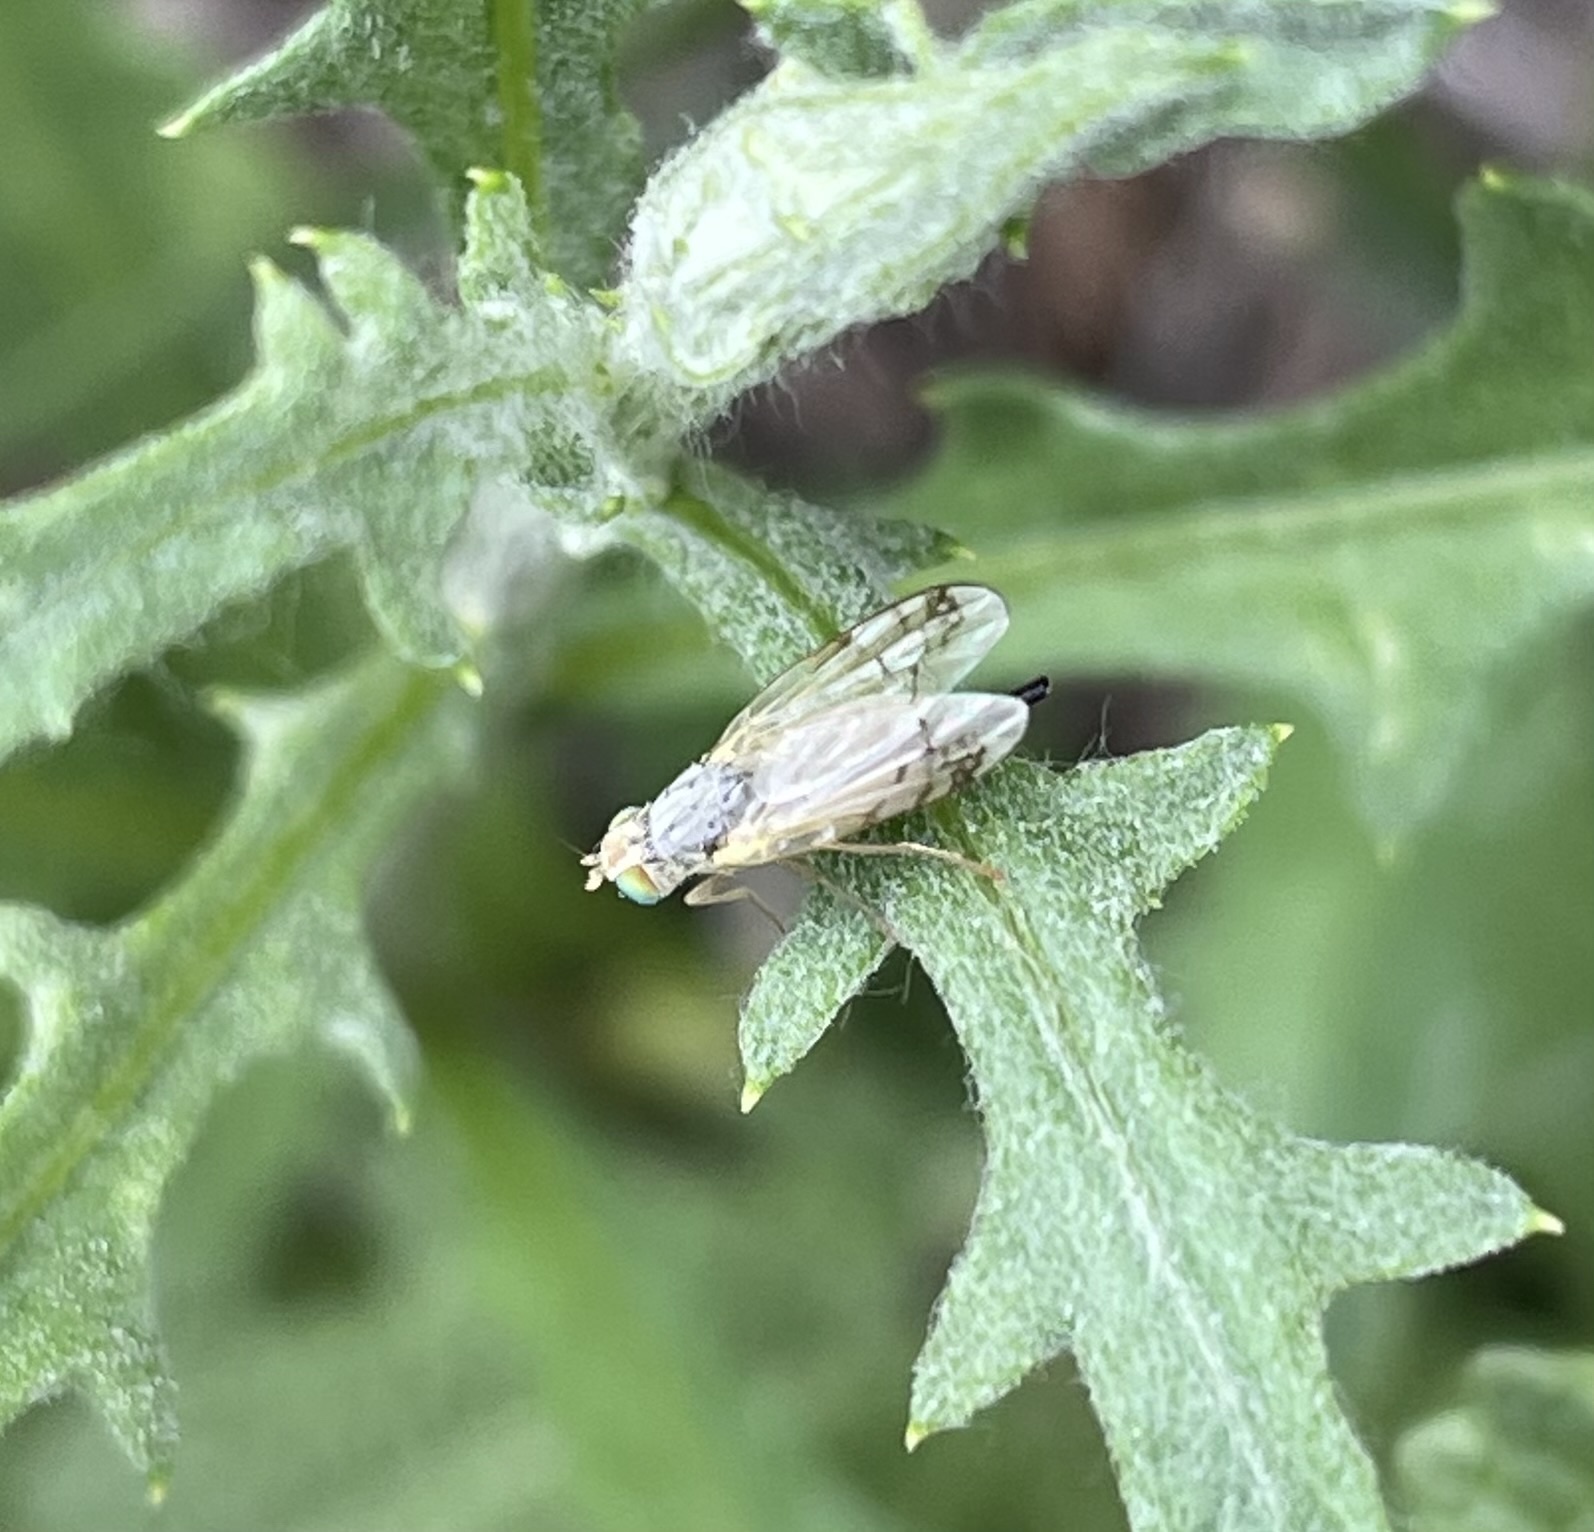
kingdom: Animalia
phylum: Arthropoda
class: Insecta
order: Diptera
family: Tephritidae
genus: Acanthiophilus
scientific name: Acanthiophilus helianthi
